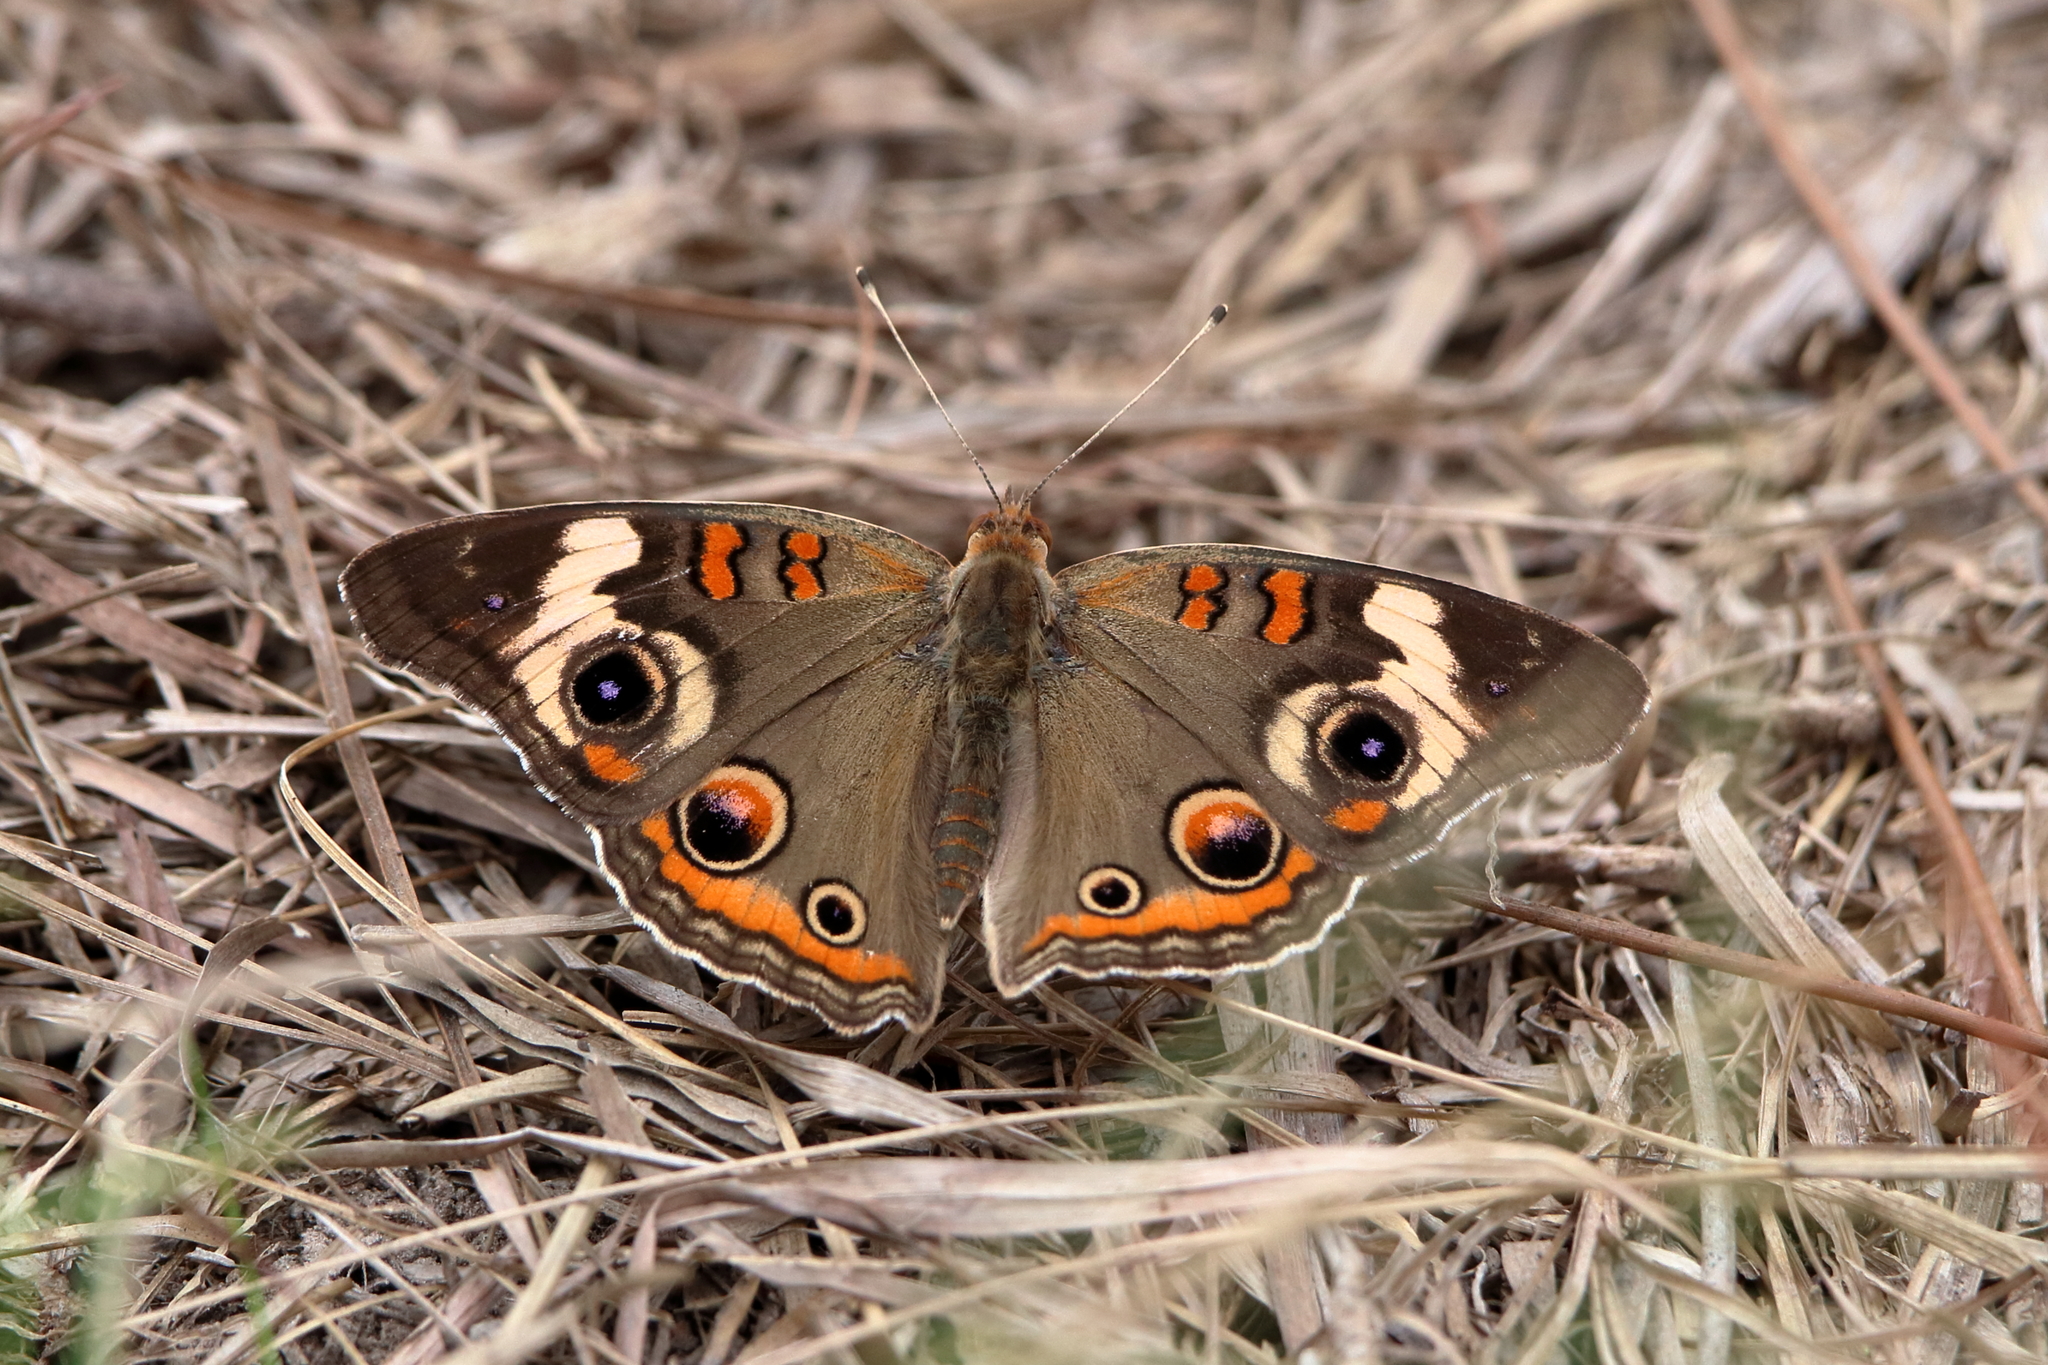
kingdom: Animalia
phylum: Arthropoda
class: Insecta
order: Lepidoptera
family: Nymphalidae
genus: Junonia
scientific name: Junonia coenia
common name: Common buckeye
